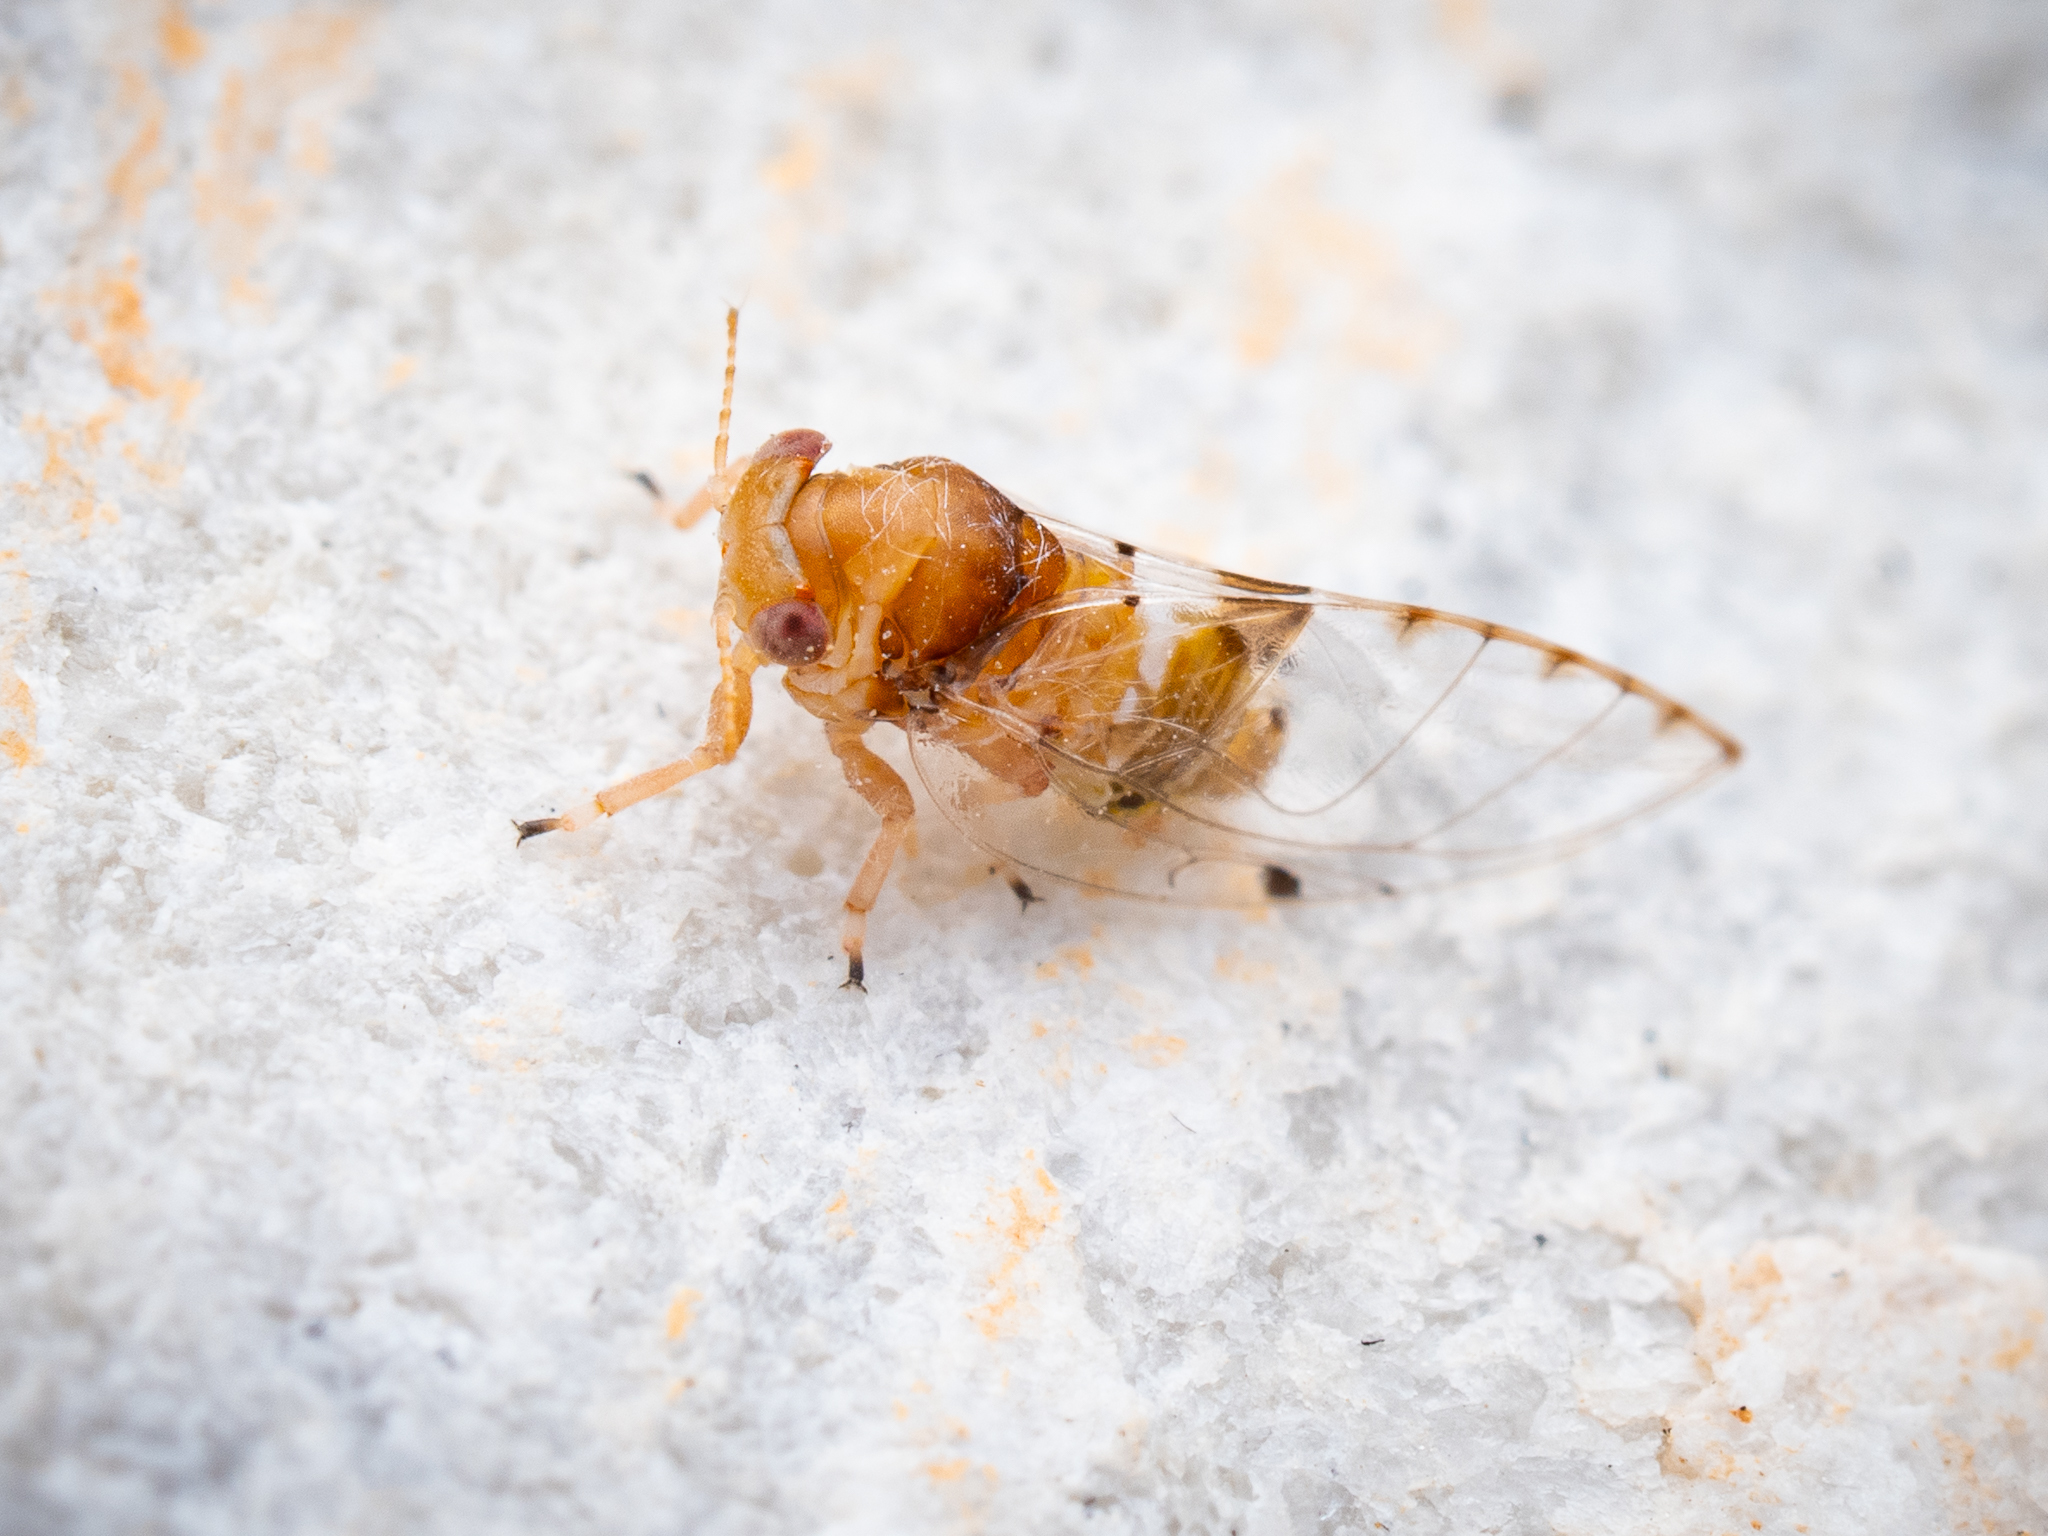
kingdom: Animalia
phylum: Arthropoda
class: Insecta
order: Hemiptera
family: Homotomidae
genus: Macrohomotoma
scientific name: Macrohomotoma gladiata
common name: Curtain fig psillid
